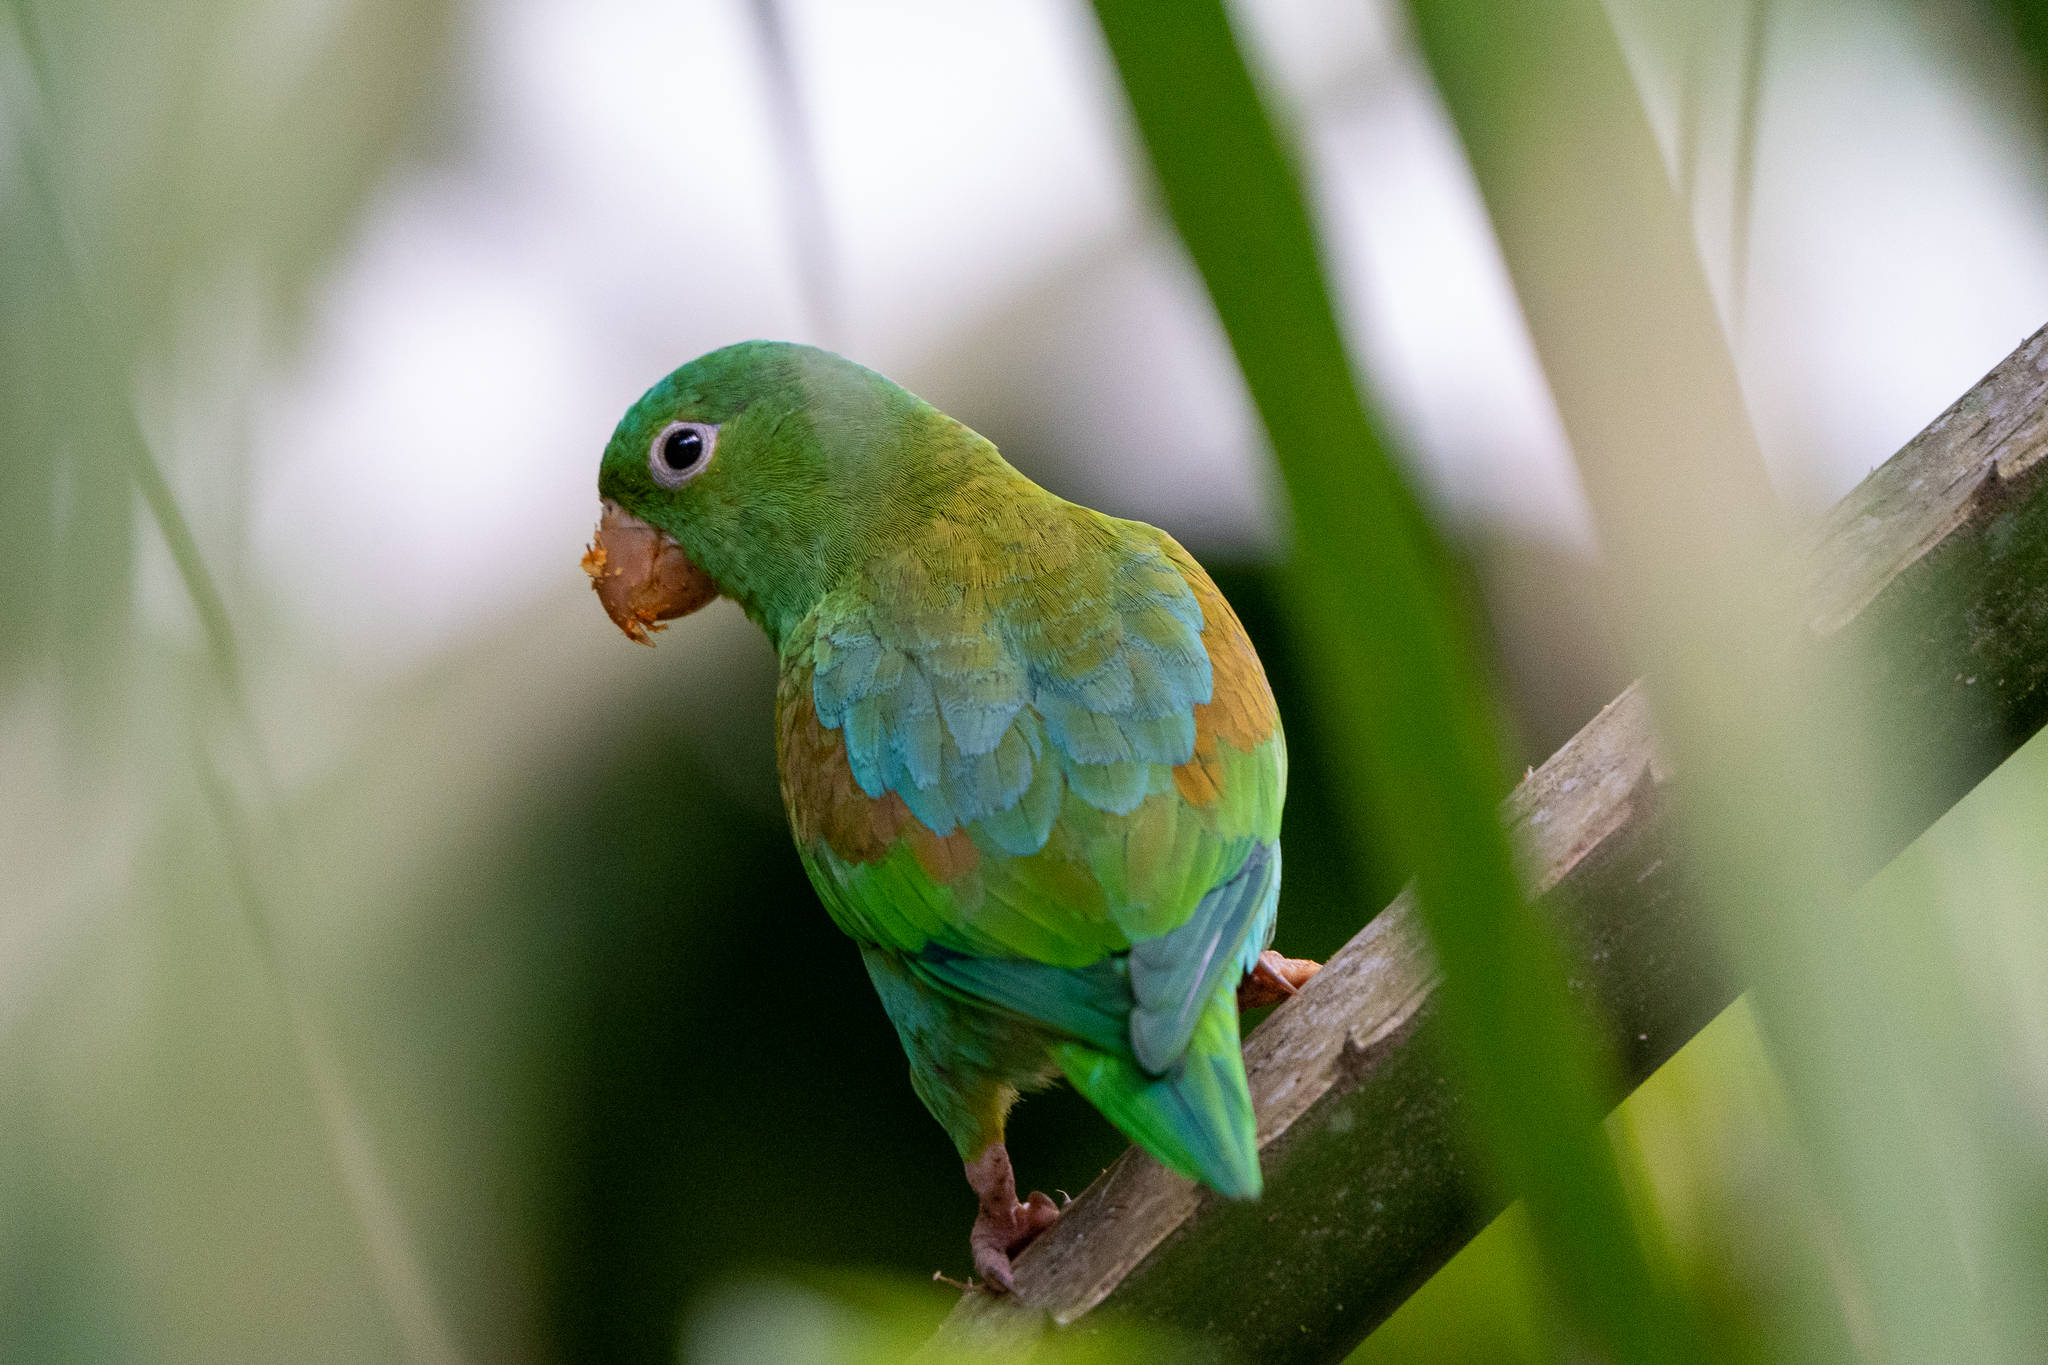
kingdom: Animalia
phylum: Chordata
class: Aves
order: Psittaciformes
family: Psittacidae
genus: Brotogeris
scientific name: Brotogeris jugularis
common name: Orange-chinned parakeet
